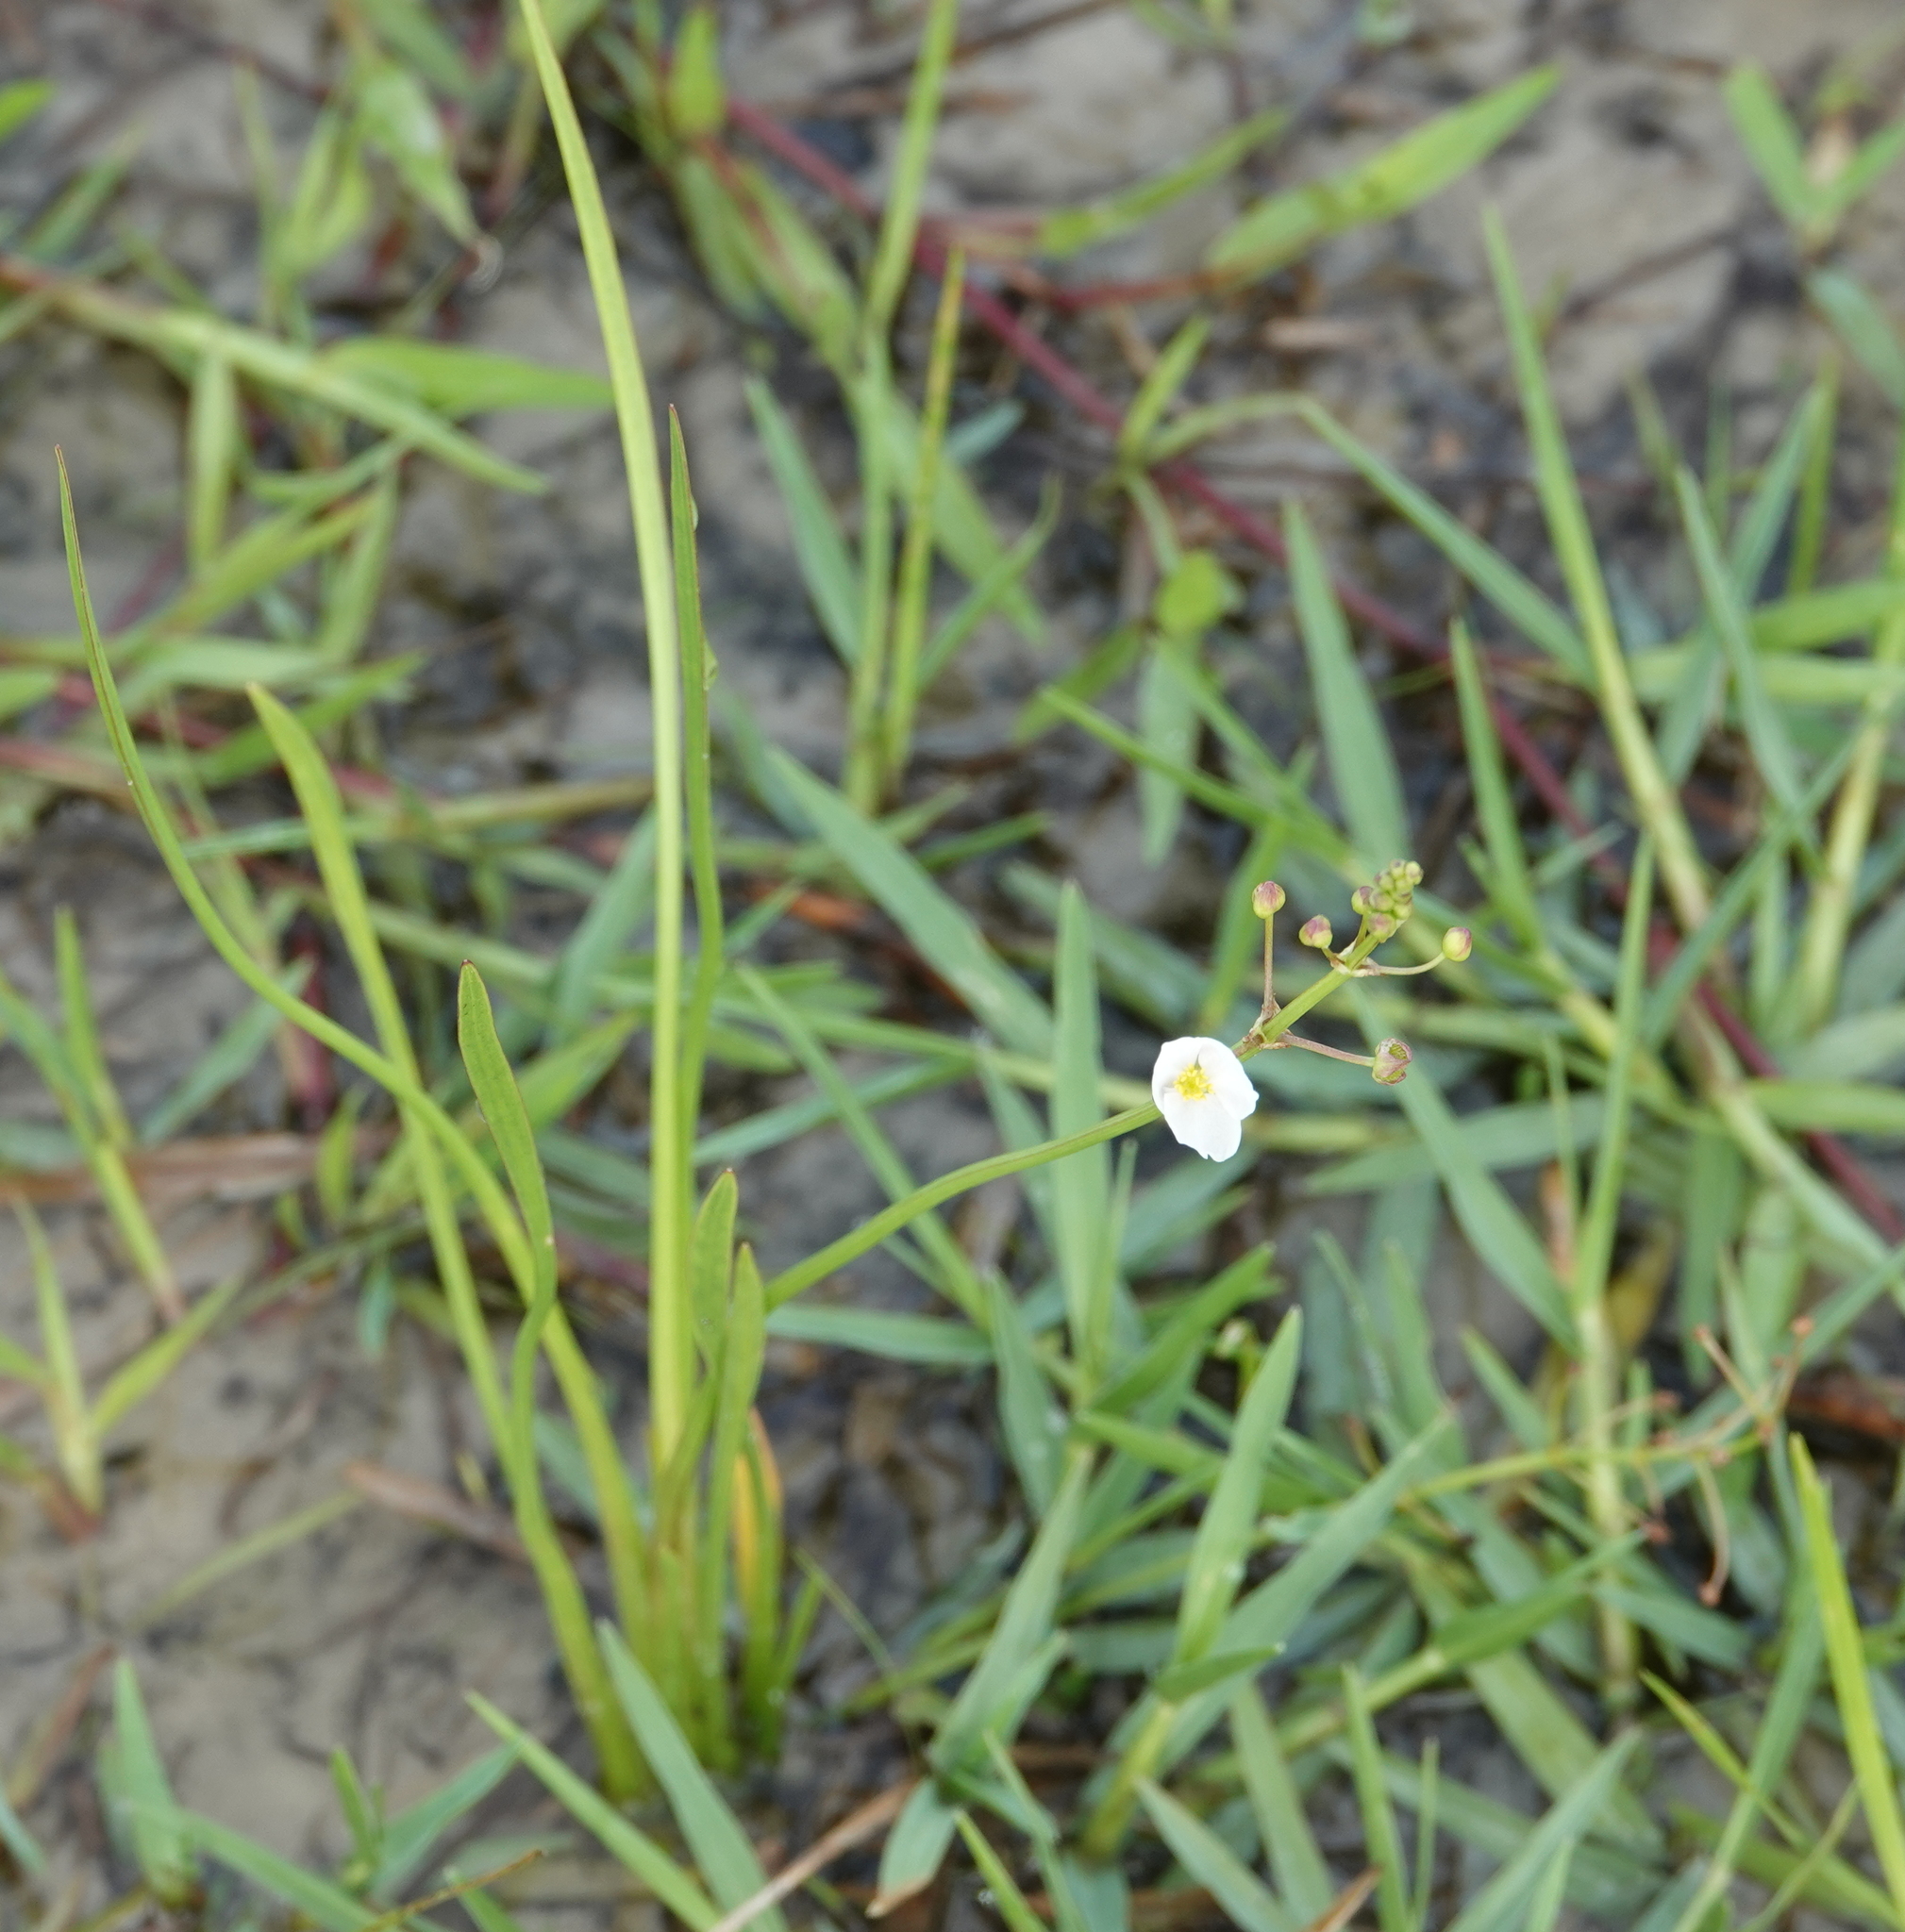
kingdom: Plantae
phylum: Tracheophyta
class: Liliopsida
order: Alismatales
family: Alismataceae
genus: Sagittaria
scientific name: Sagittaria graminea
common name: Grass-leaved arrowhead
